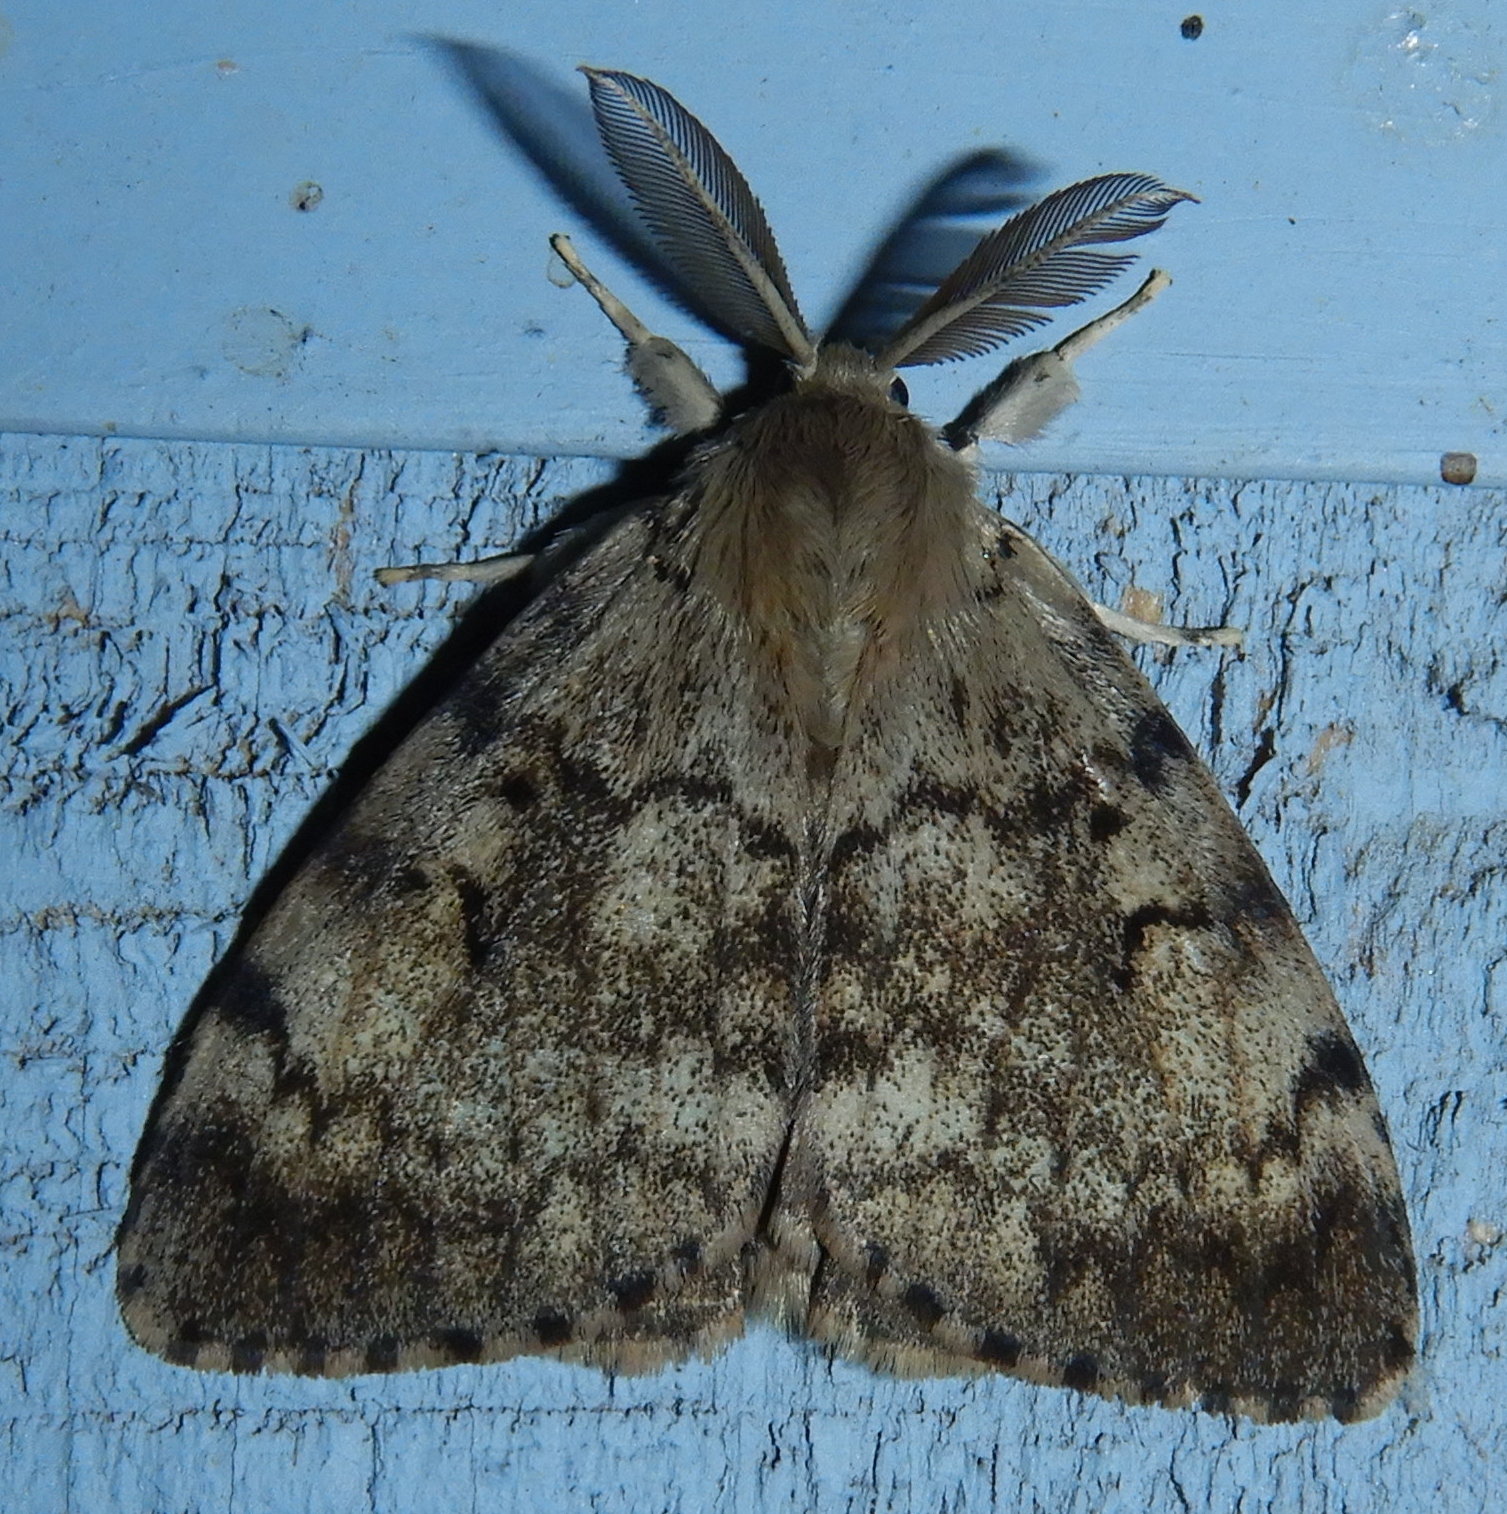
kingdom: Animalia
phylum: Arthropoda
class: Insecta
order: Lepidoptera
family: Erebidae
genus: Lymantria
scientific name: Lymantria dispar
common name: Gypsy moth
